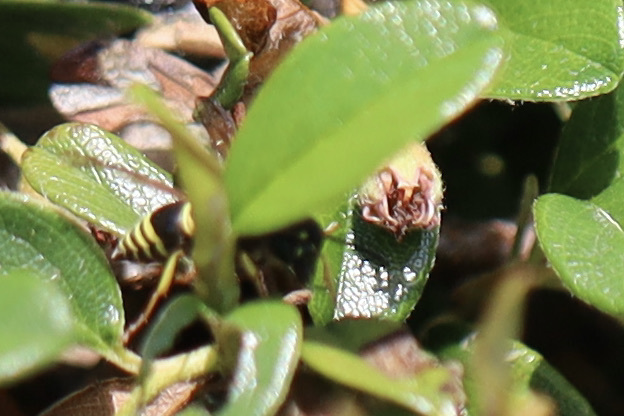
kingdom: Animalia
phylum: Arthropoda
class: Insecta
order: Hymenoptera
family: Vespidae
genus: Ancistrocerus
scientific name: Ancistrocerus waldenii
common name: Walden’s potter wasp
